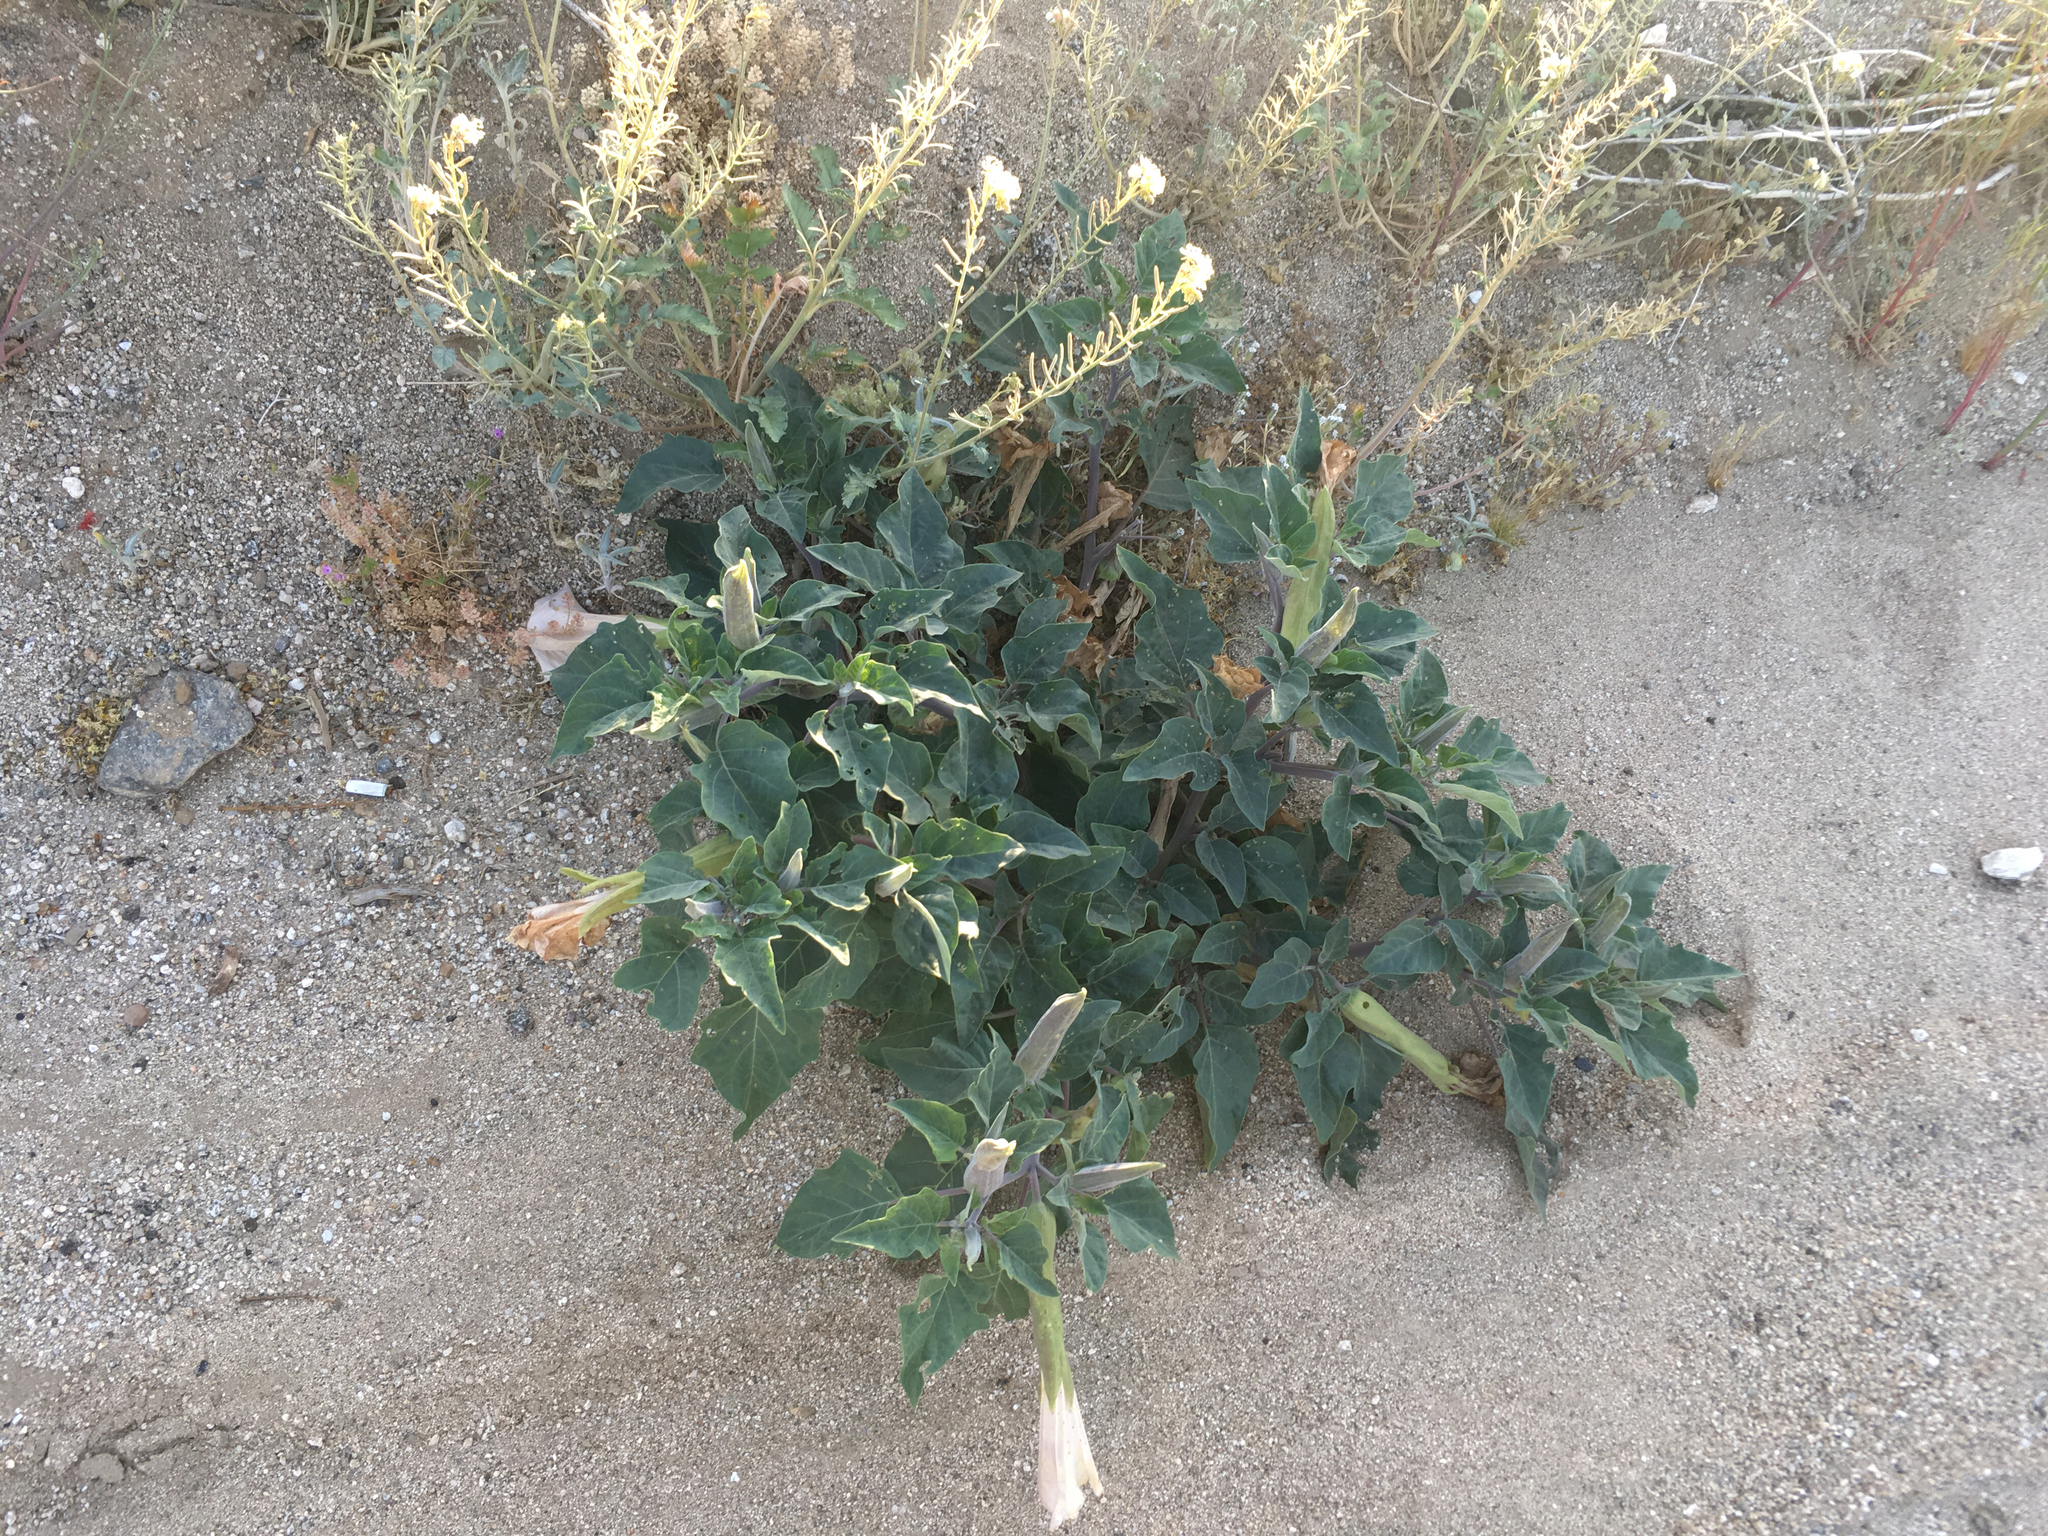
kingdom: Plantae
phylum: Tracheophyta
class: Magnoliopsida
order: Solanales
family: Solanaceae
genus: Datura
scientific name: Datura wrightii
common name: Sacred thorn-apple
